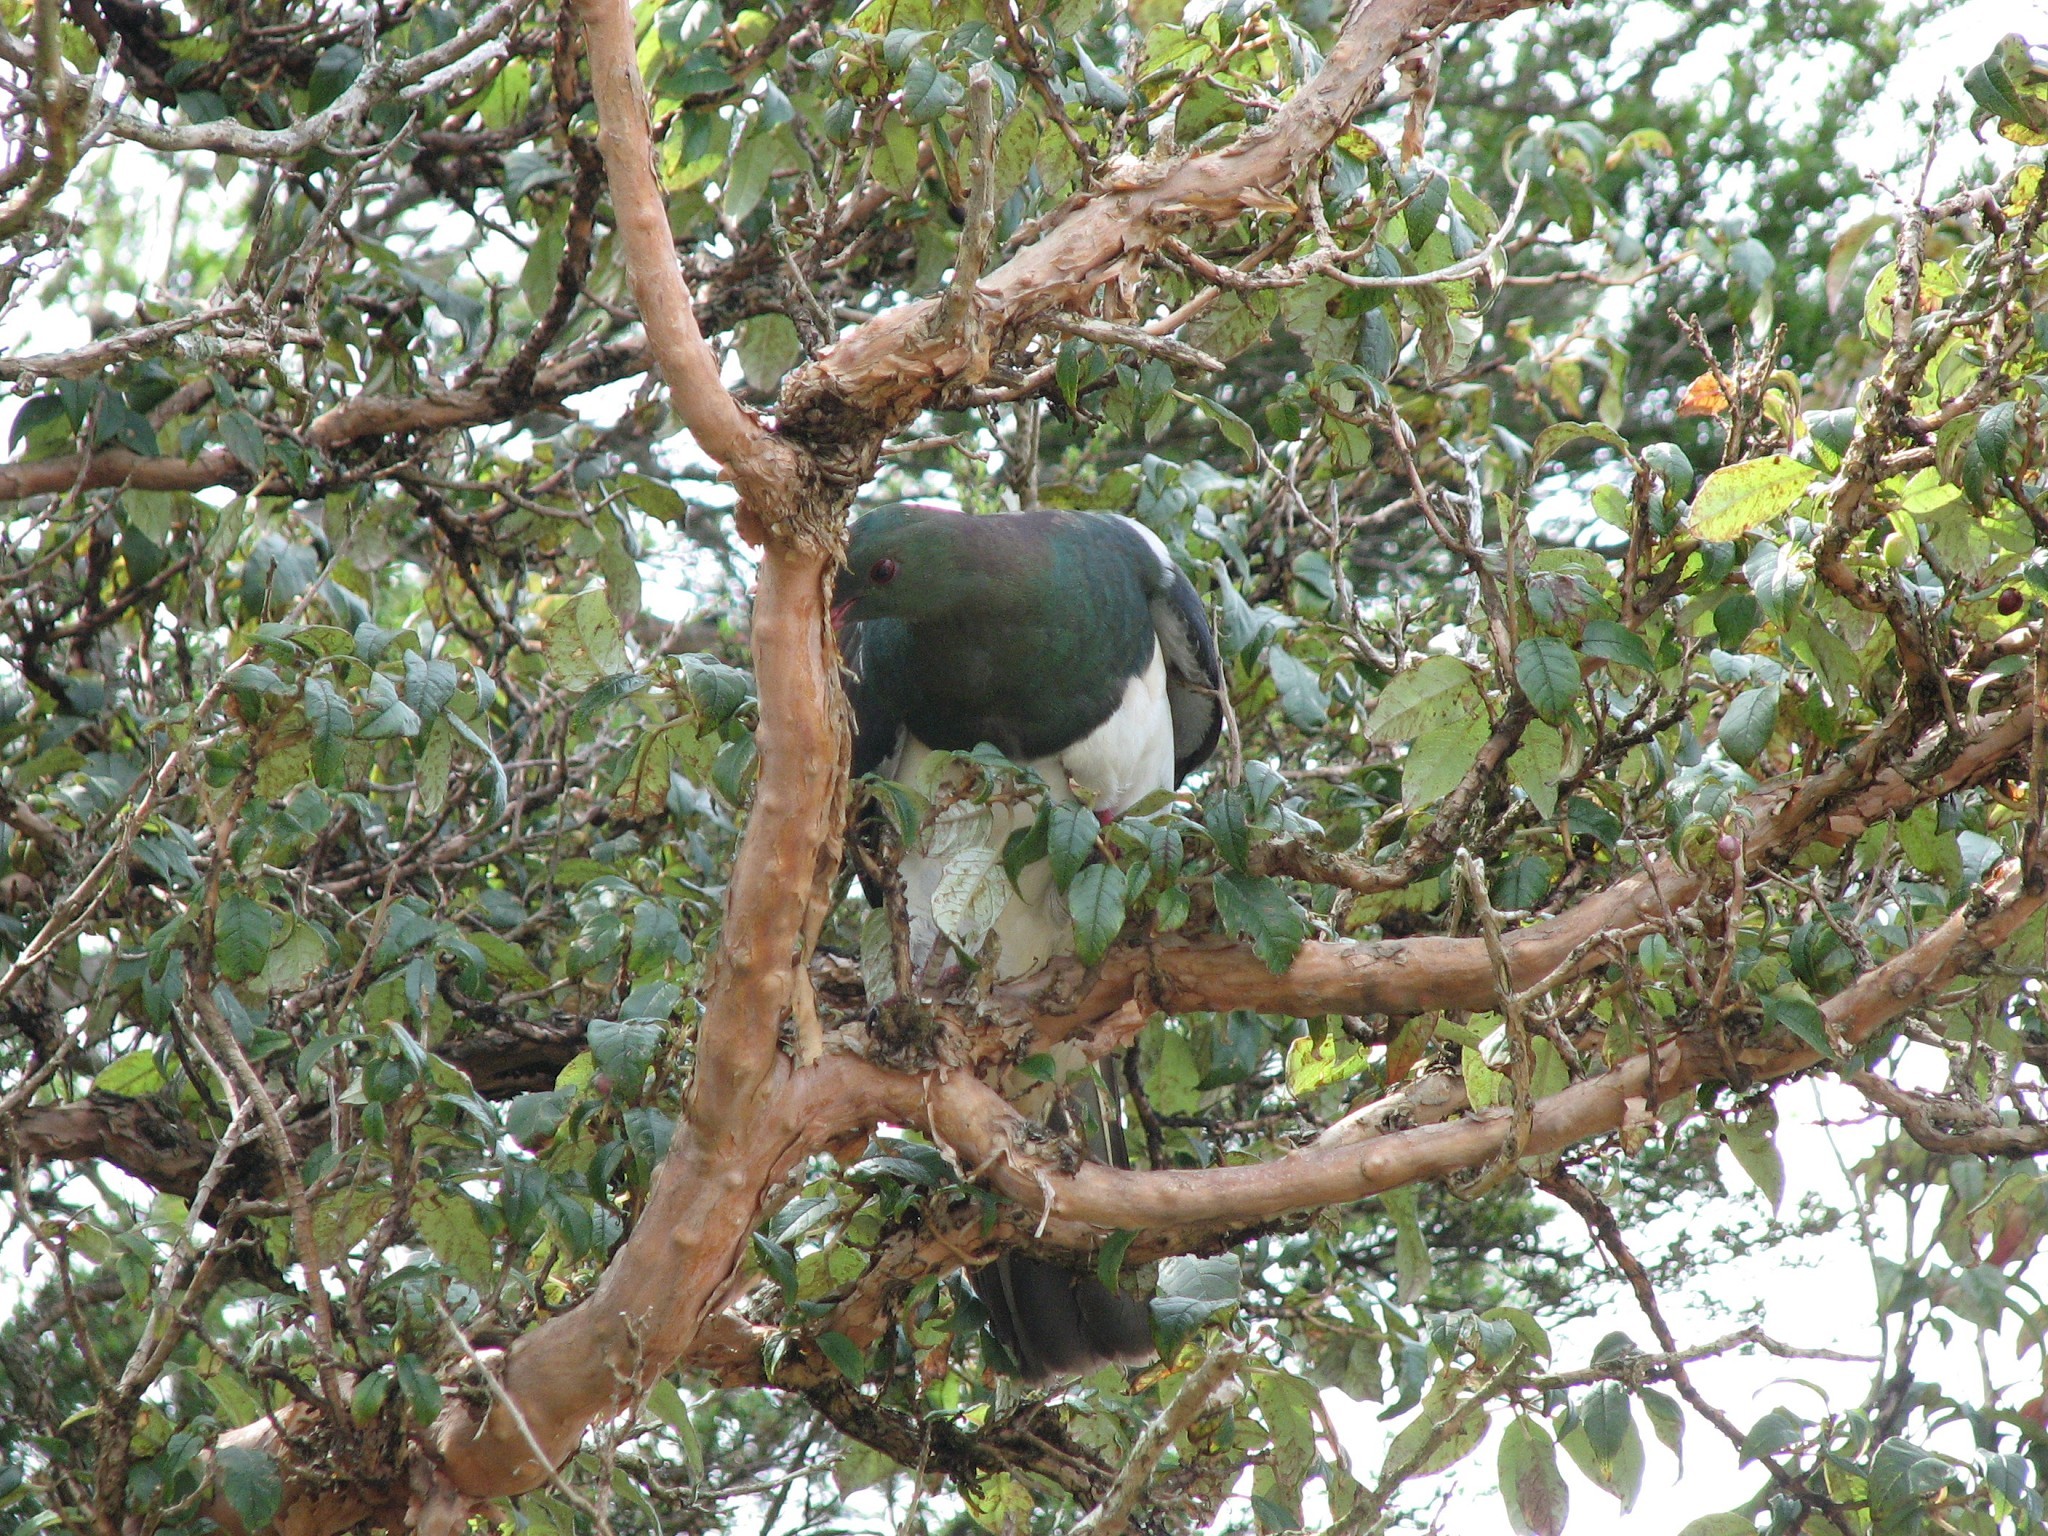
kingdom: Animalia
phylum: Chordata
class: Aves
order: Columbiformes
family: Columbidae
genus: Hemiphaga
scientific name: Hemiphaga novaeseelandiae
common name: New zealand pigeon
